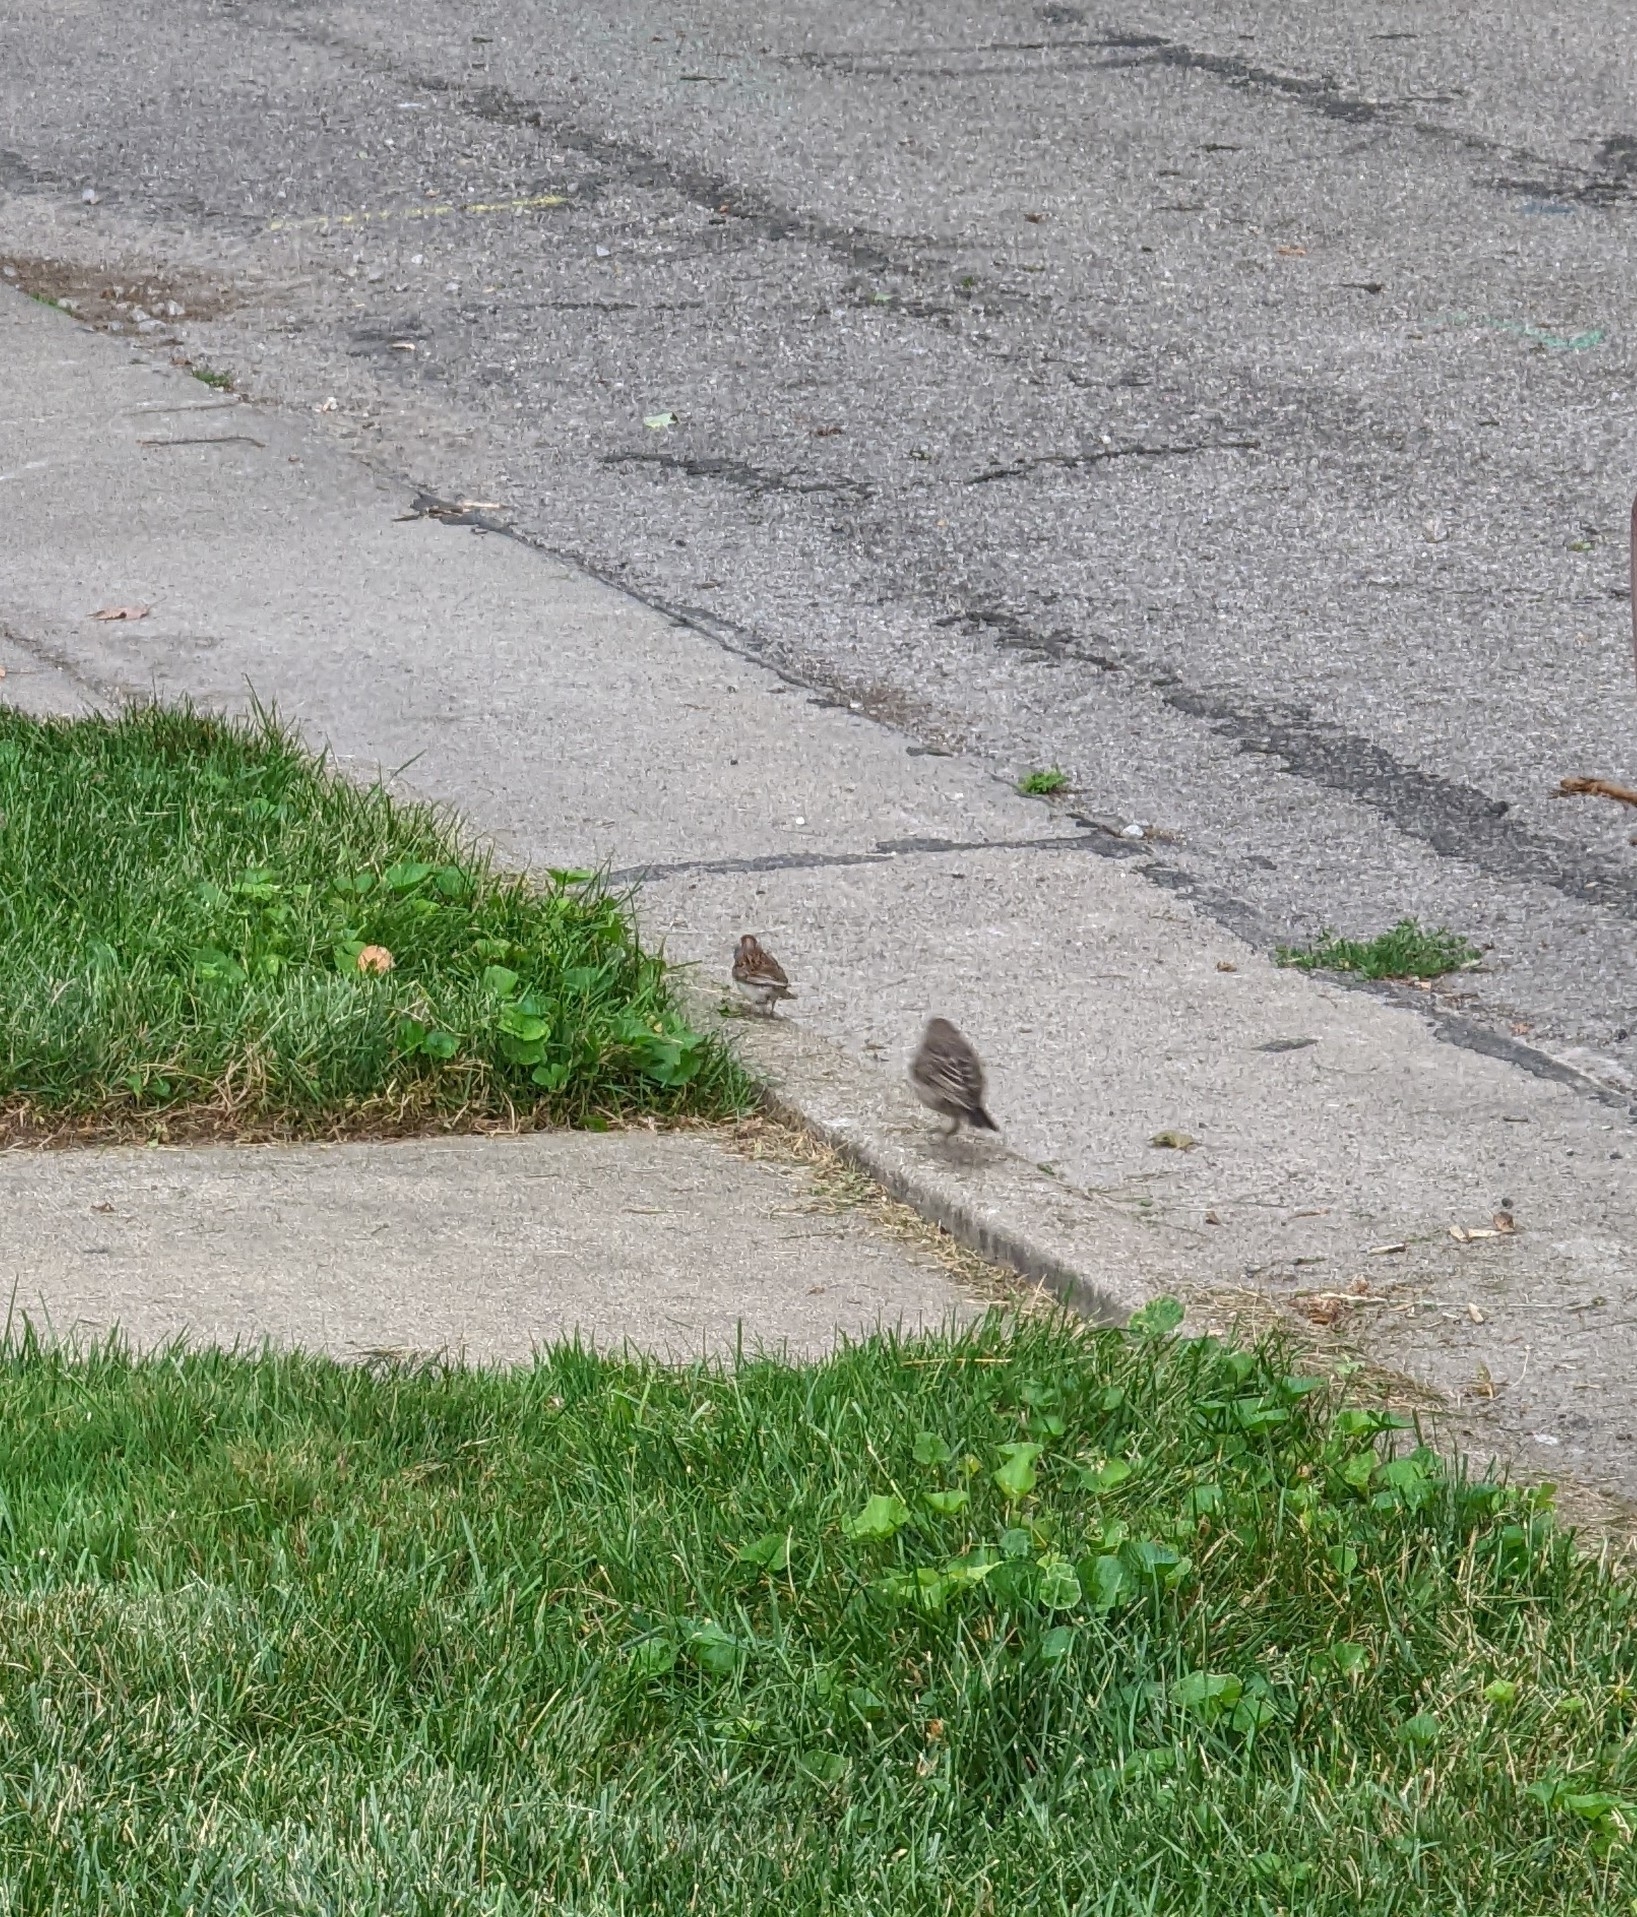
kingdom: Animalia
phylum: Chordata
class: Aves
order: Passeriformes
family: Passerellidae
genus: Spizella
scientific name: Spizella passerina
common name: Chipping sparrow
